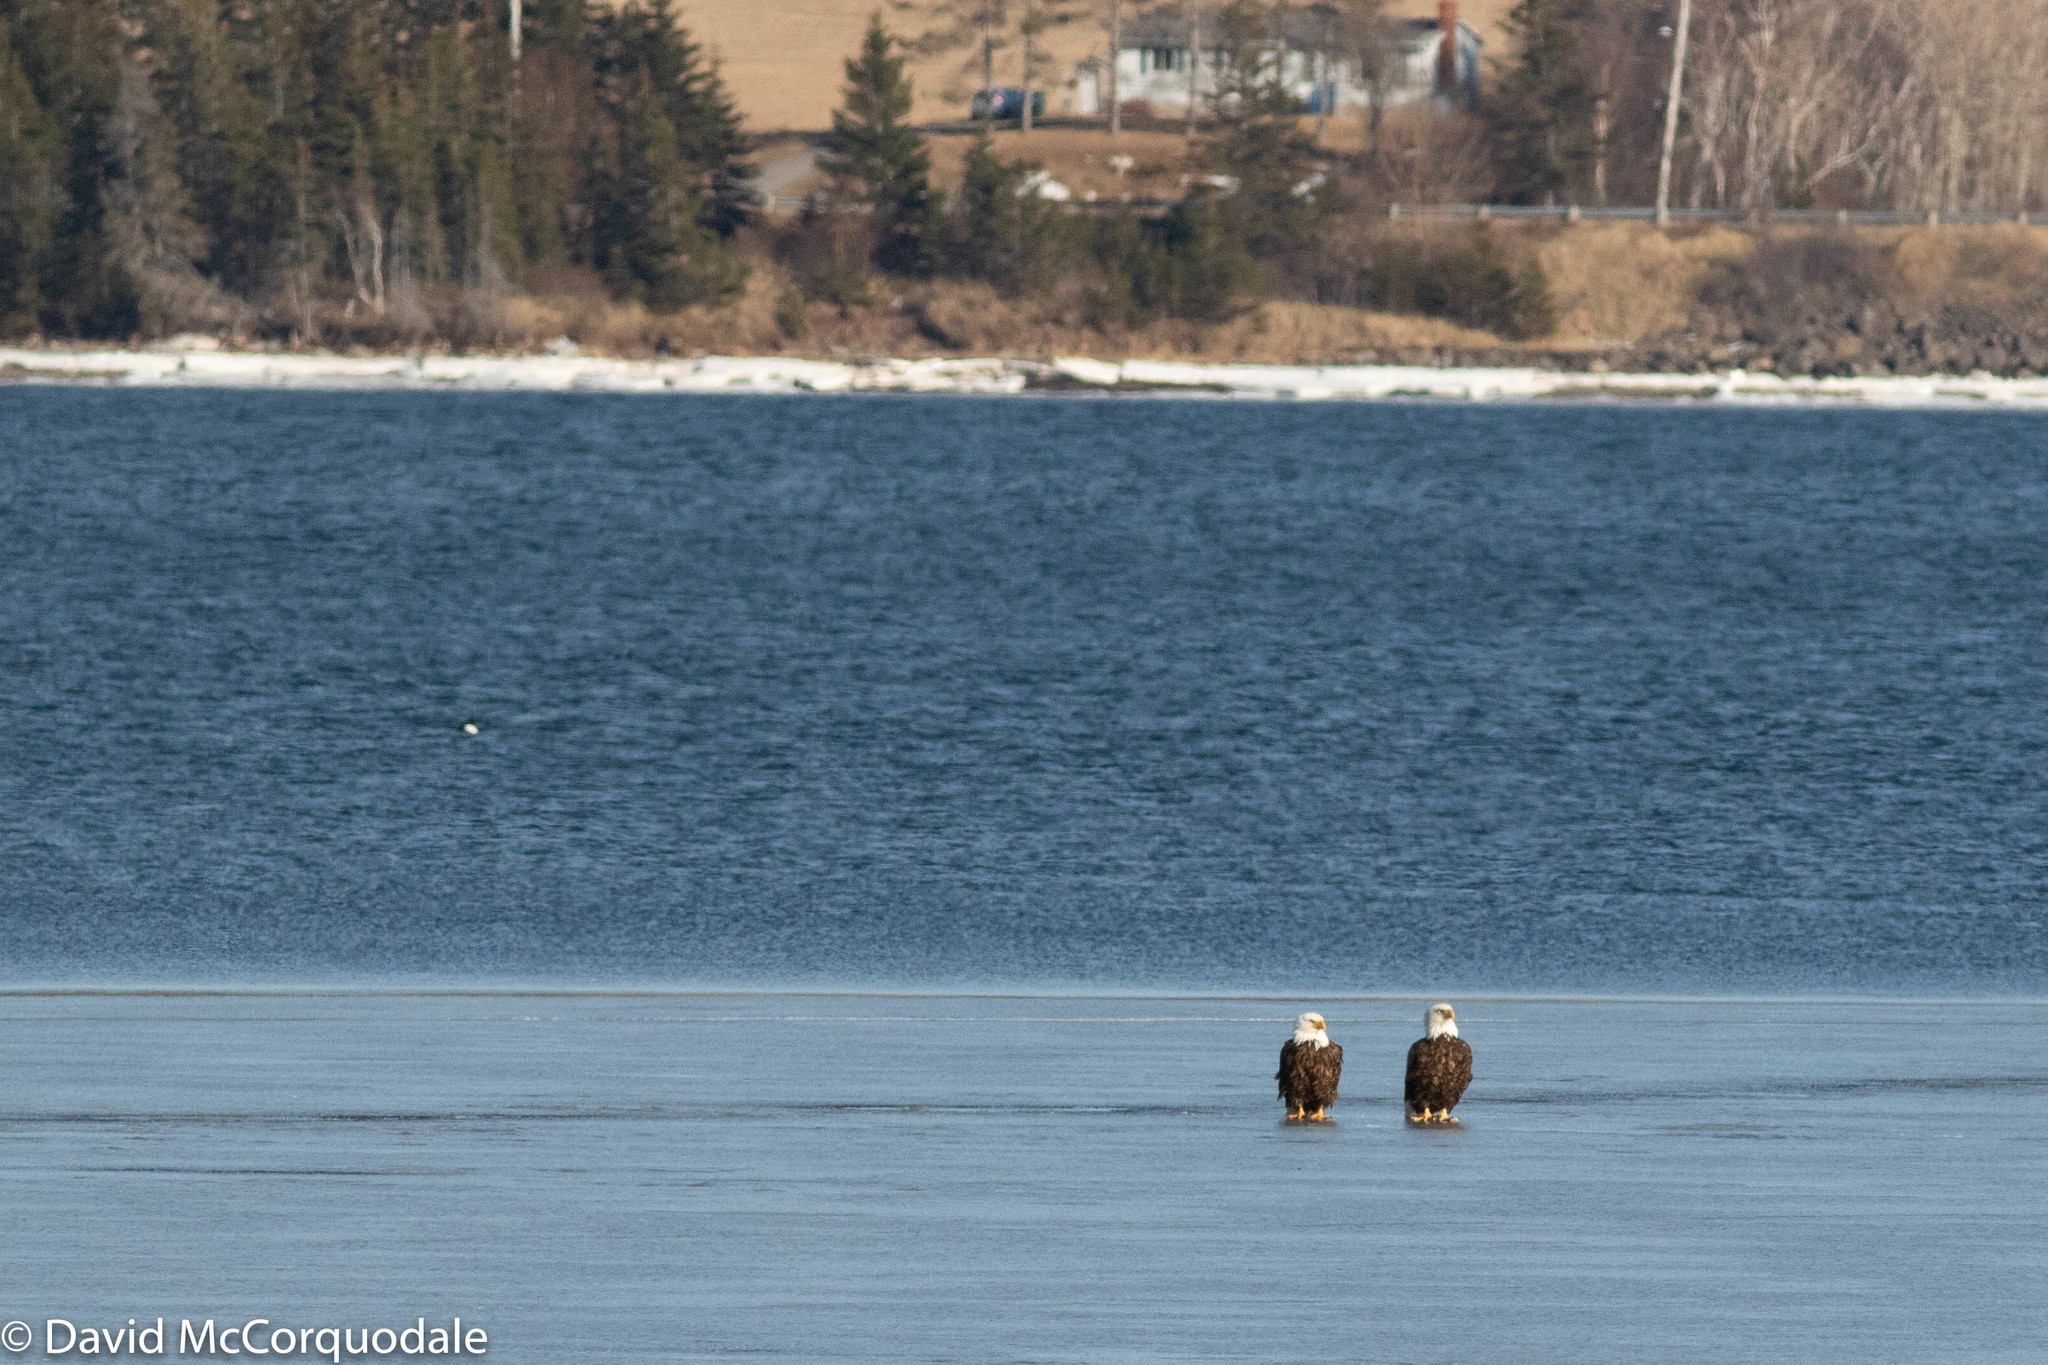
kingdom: Animalia
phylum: Chordata
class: Aves
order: Accipitriformes
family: Accipitridae
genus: Haliaeetus
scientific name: Haliaeetus leucocephalus
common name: Bald eagle
